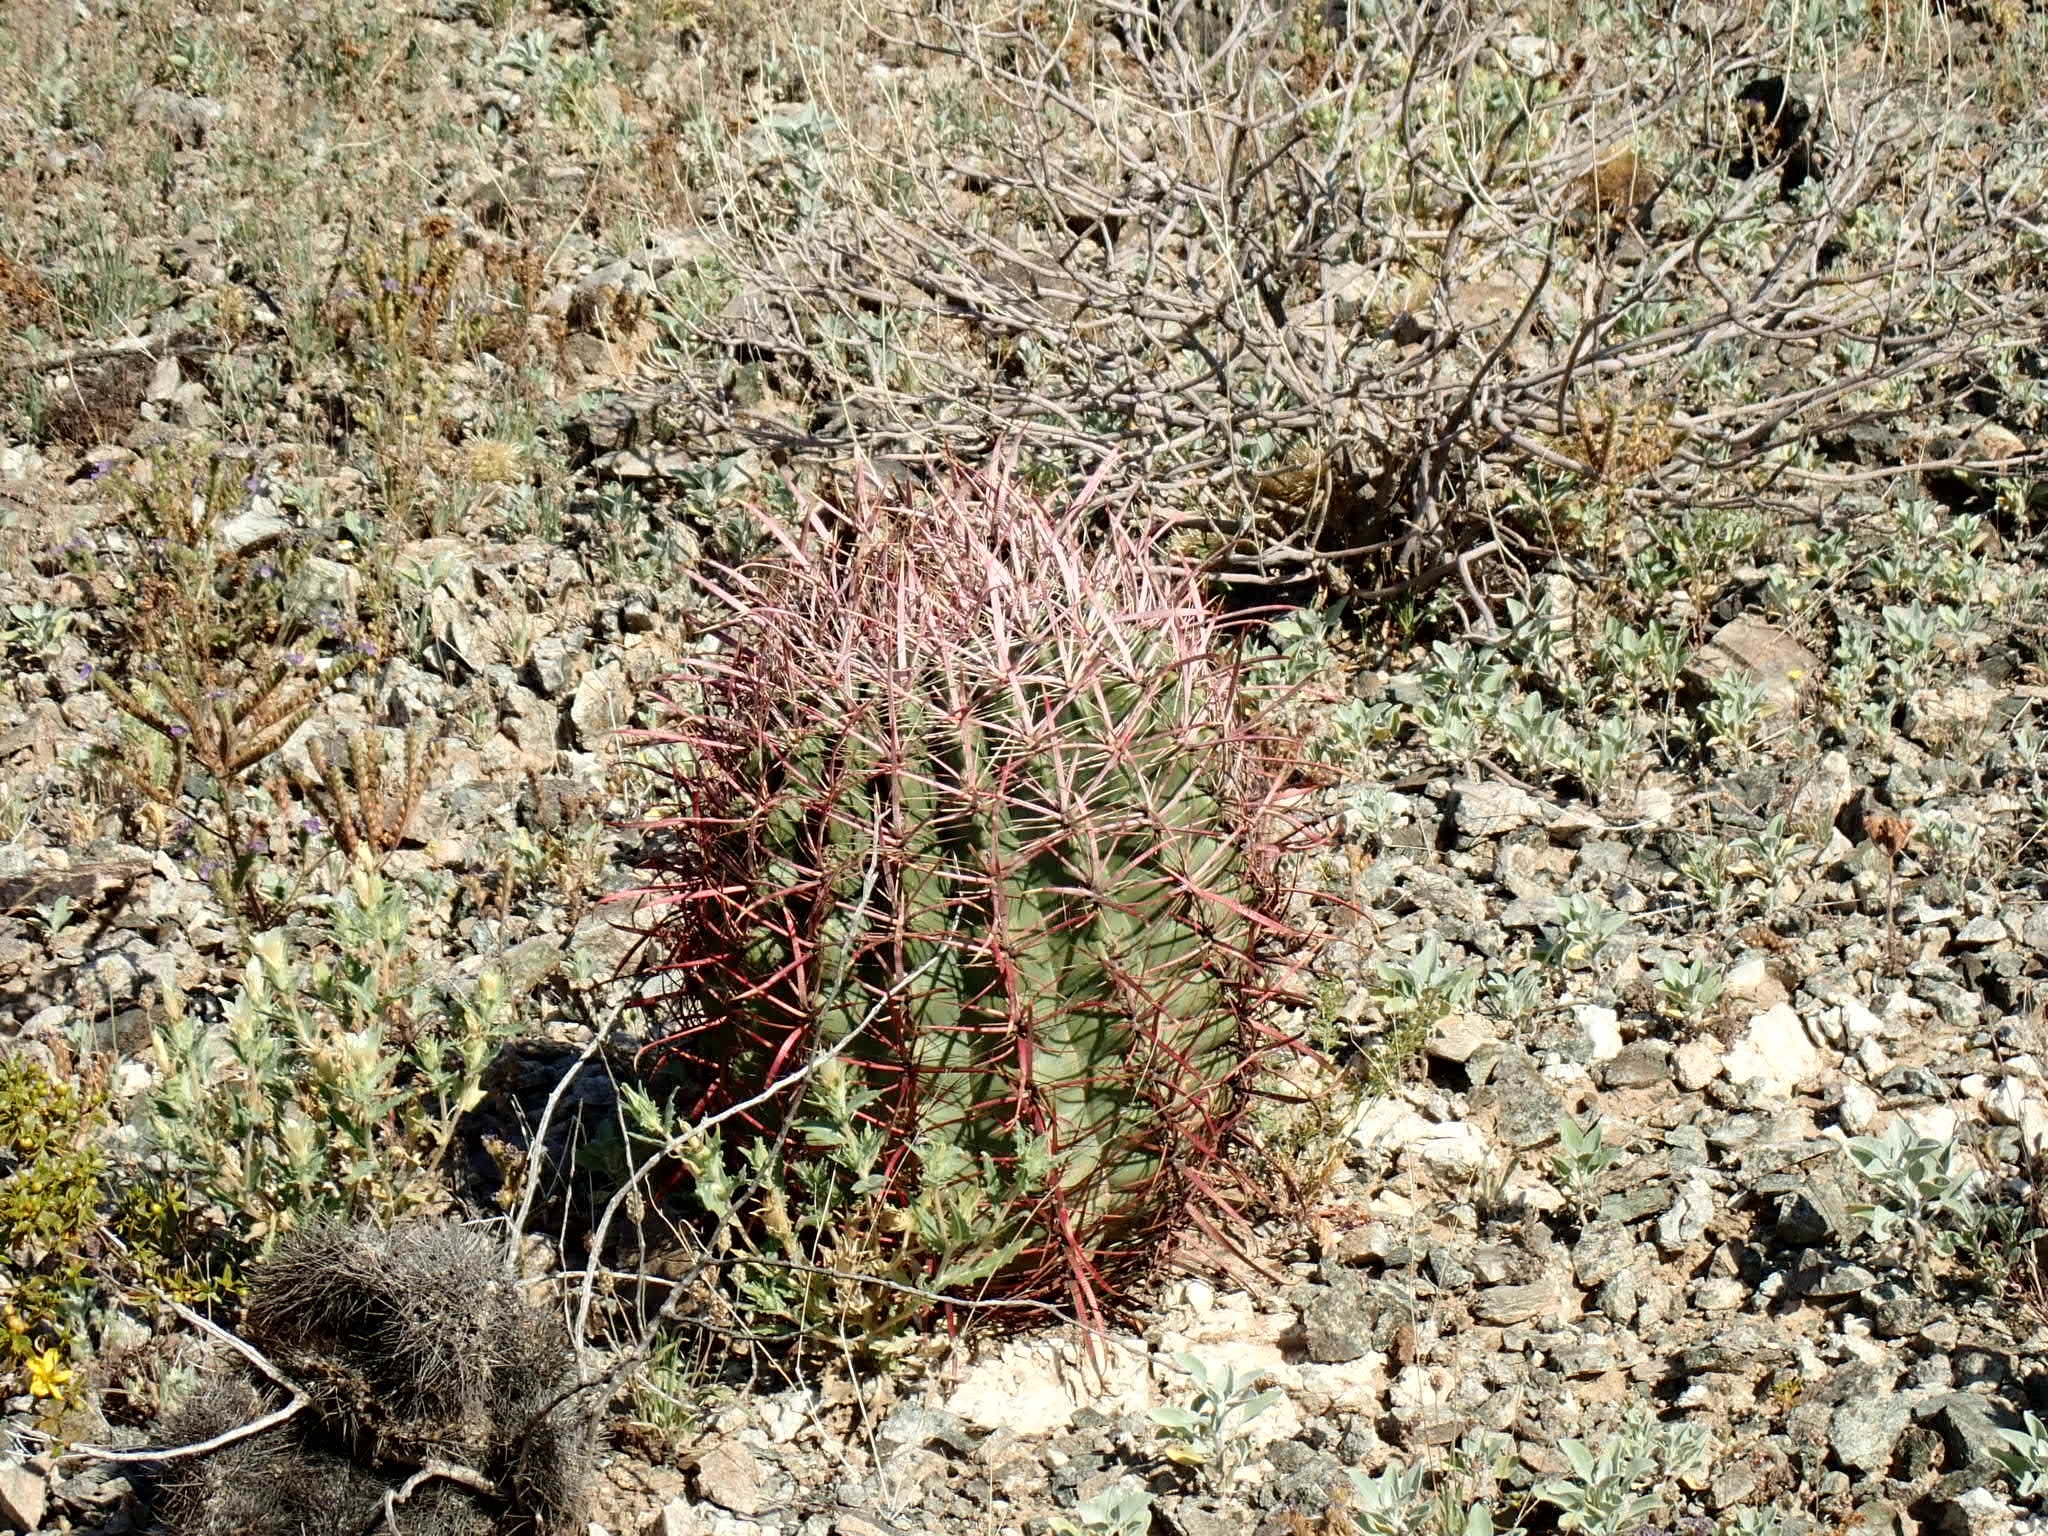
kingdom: Plantae
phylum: Tracheophyta
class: Magnoliopsida
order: Caryophyllales
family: Cactaceae
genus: Ferocactus
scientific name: Ferocactus cylindraceus
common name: California barrel cactus
